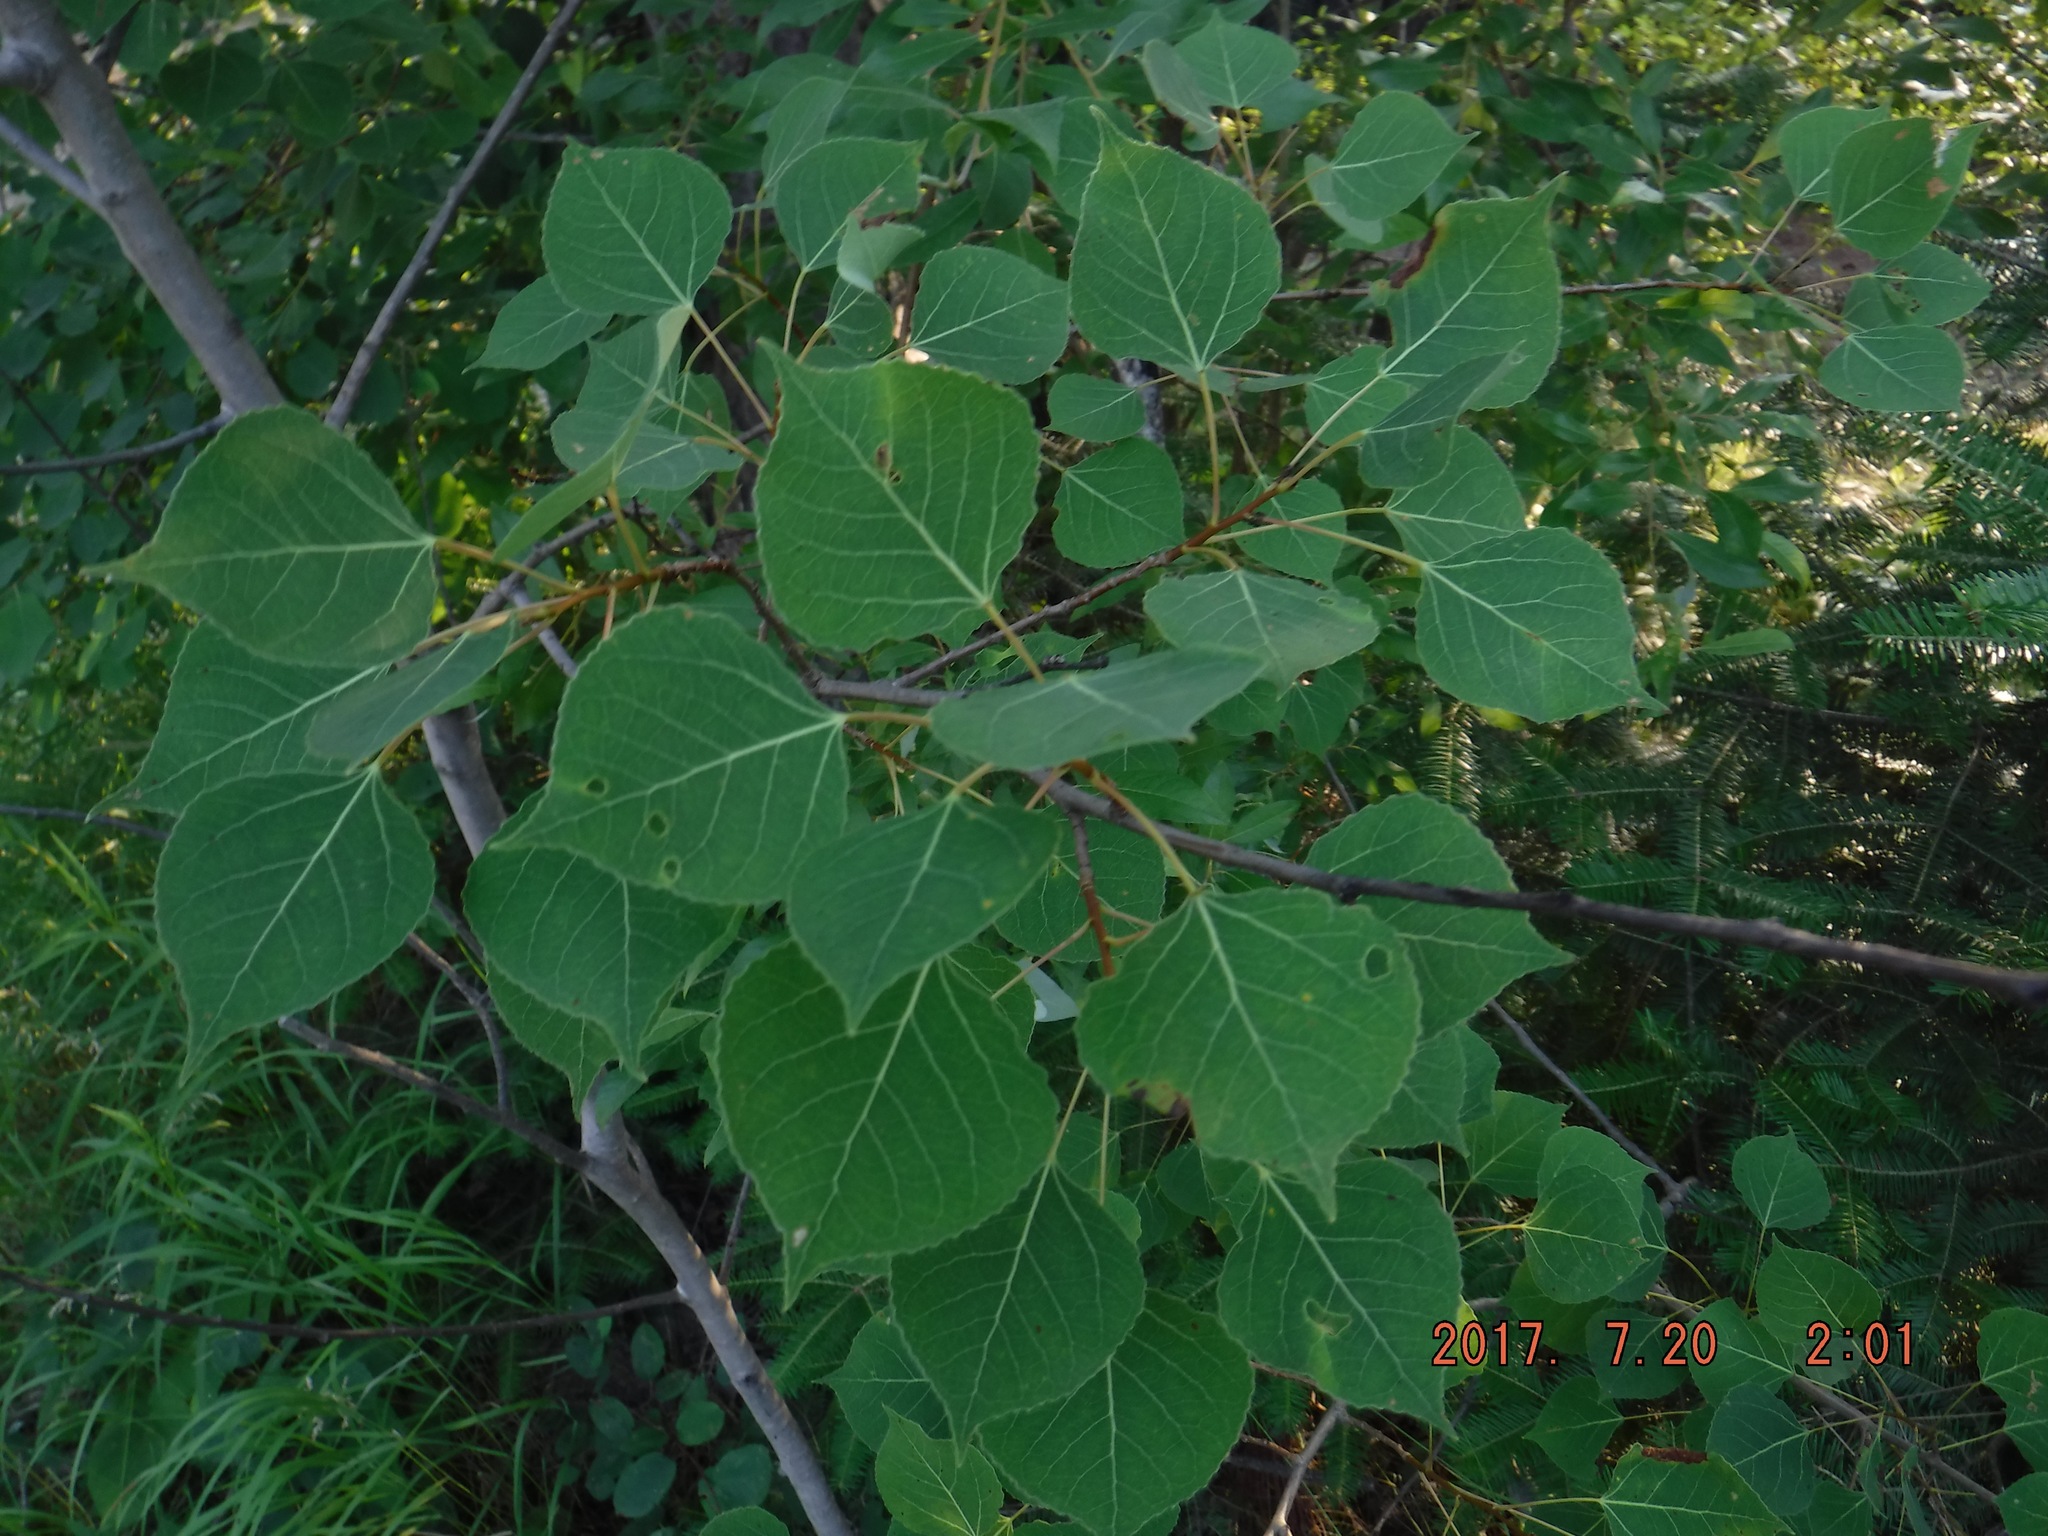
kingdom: Plantae
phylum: Tracheophyta
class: Magnoliopsida
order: Malpighiales
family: Salicaceae
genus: Populus
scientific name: Populus tremuloides
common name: Quaking aspen
